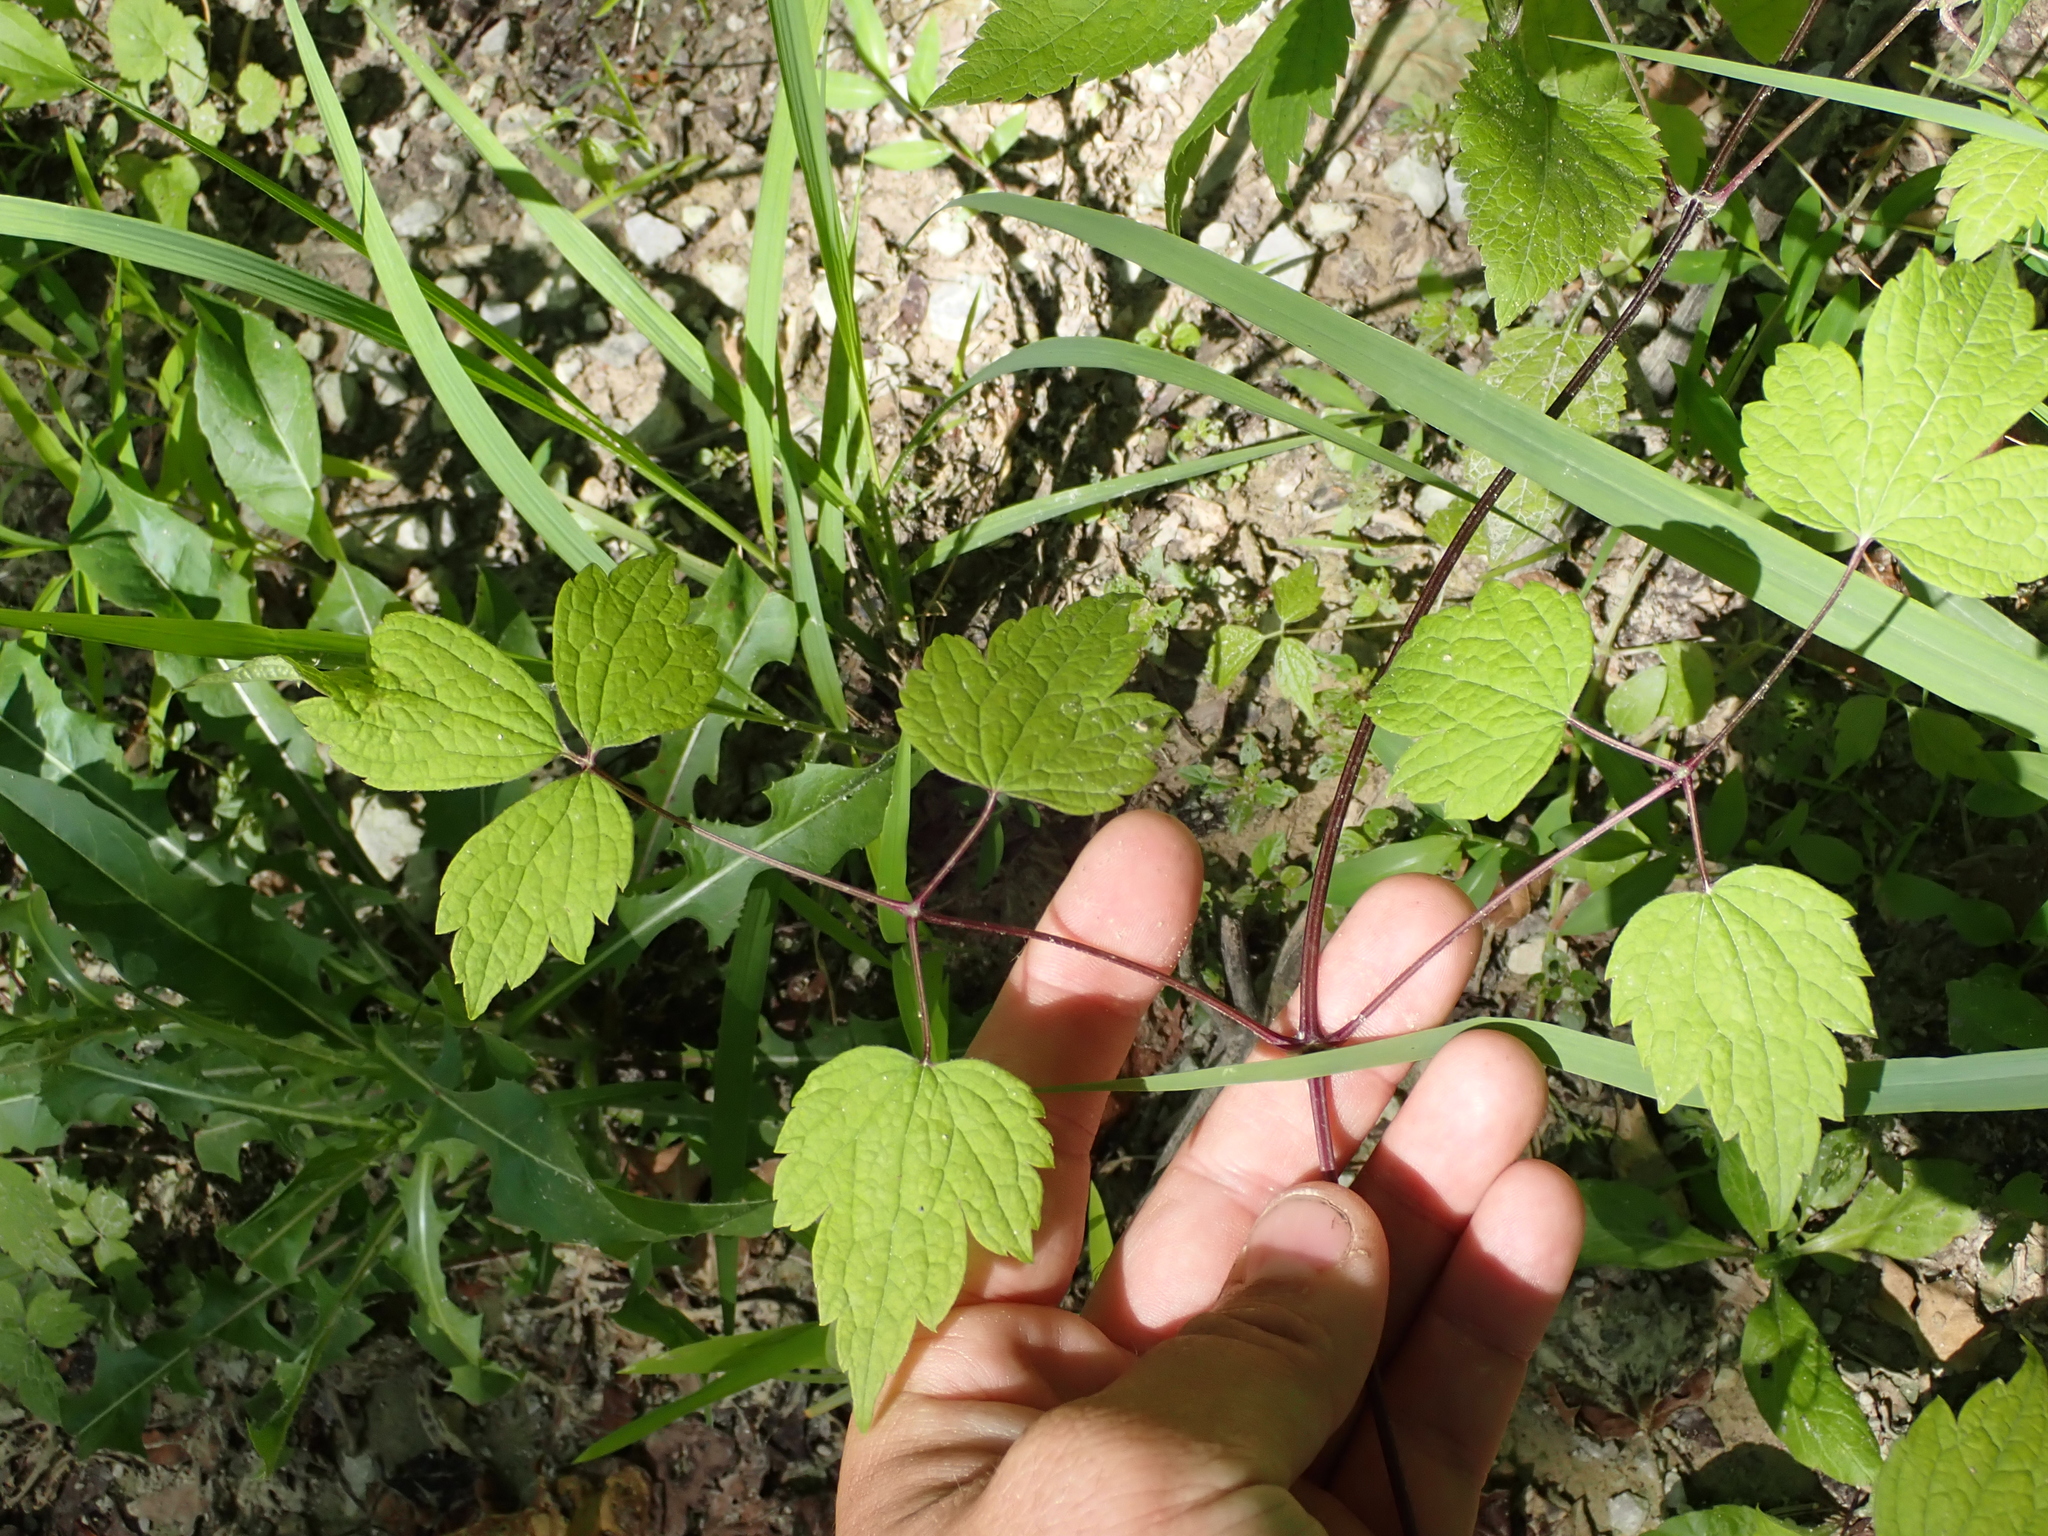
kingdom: Plantae
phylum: Tracheophyta
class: Magnoliopsida
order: Ranunculales
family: Ranunculaceae
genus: Clematis
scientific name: Clematis catesbyana
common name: Virgin's bower
